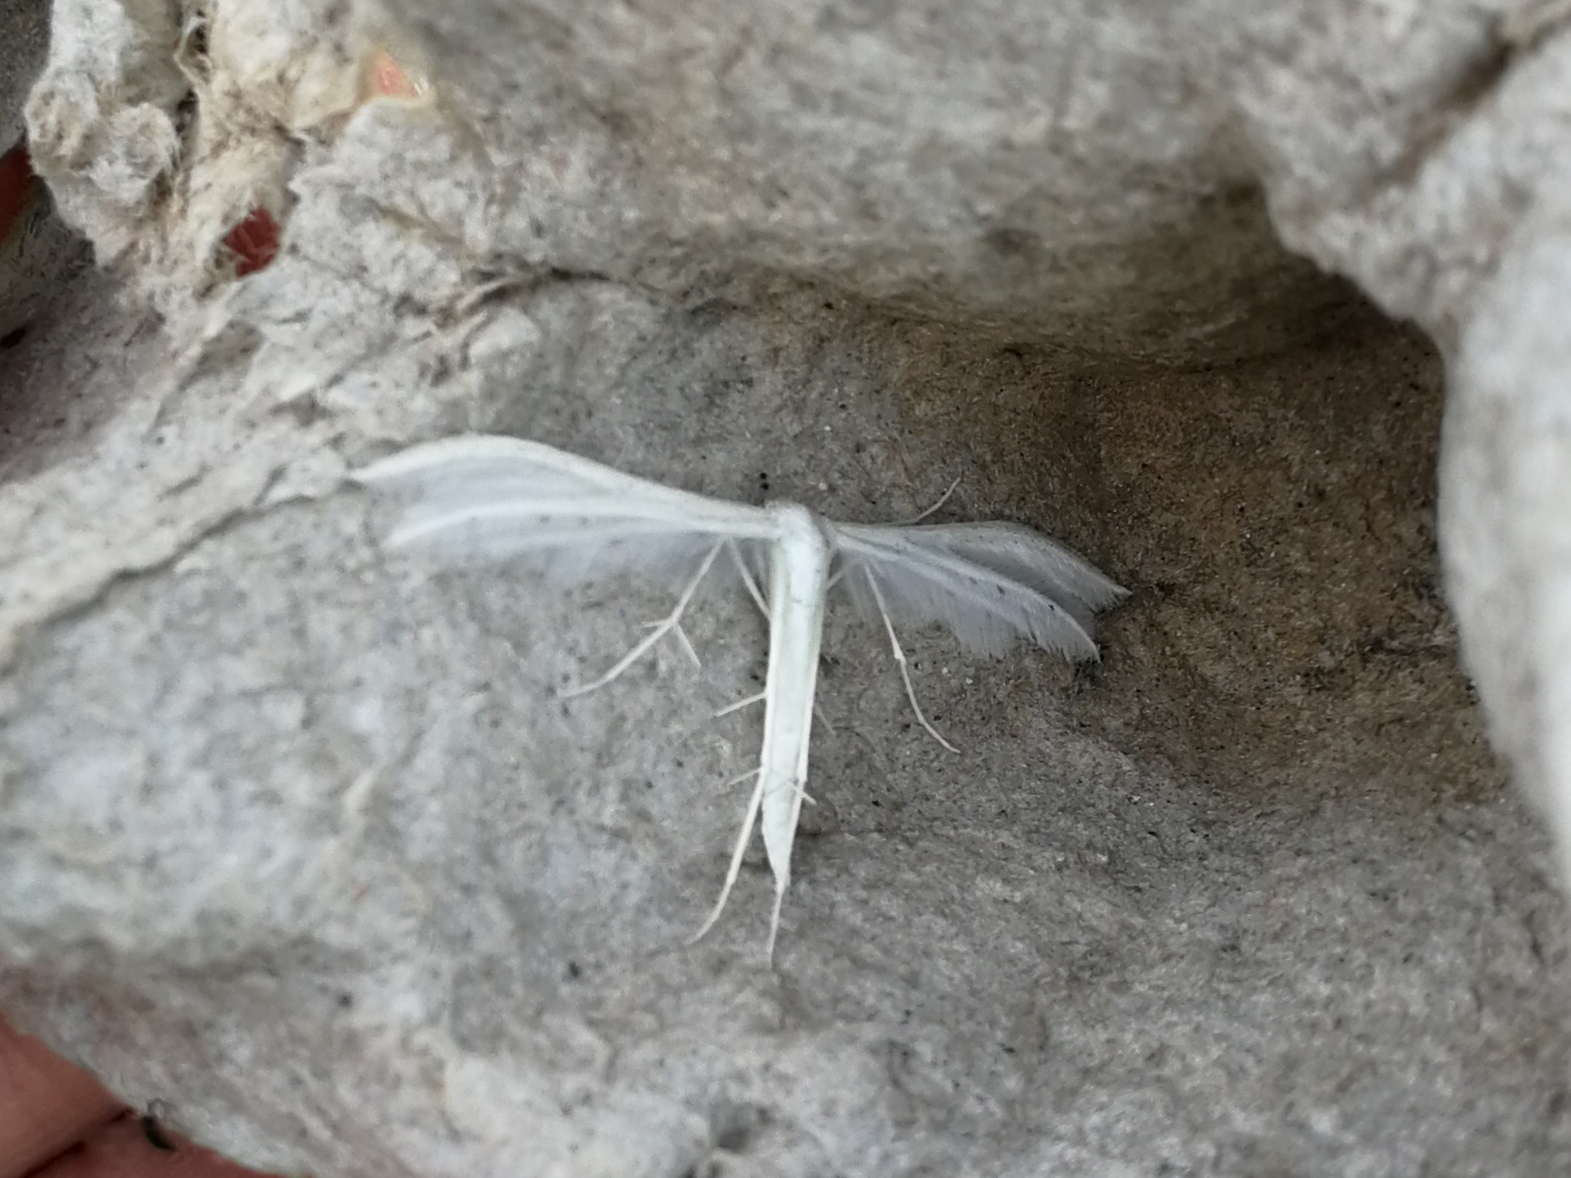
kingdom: Animalia
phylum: Arthropoda
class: Insecta
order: Lepidoptera
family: Pterophoridae
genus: Pterophorus
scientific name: Pterophorus pentadactyla
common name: White plume moth
